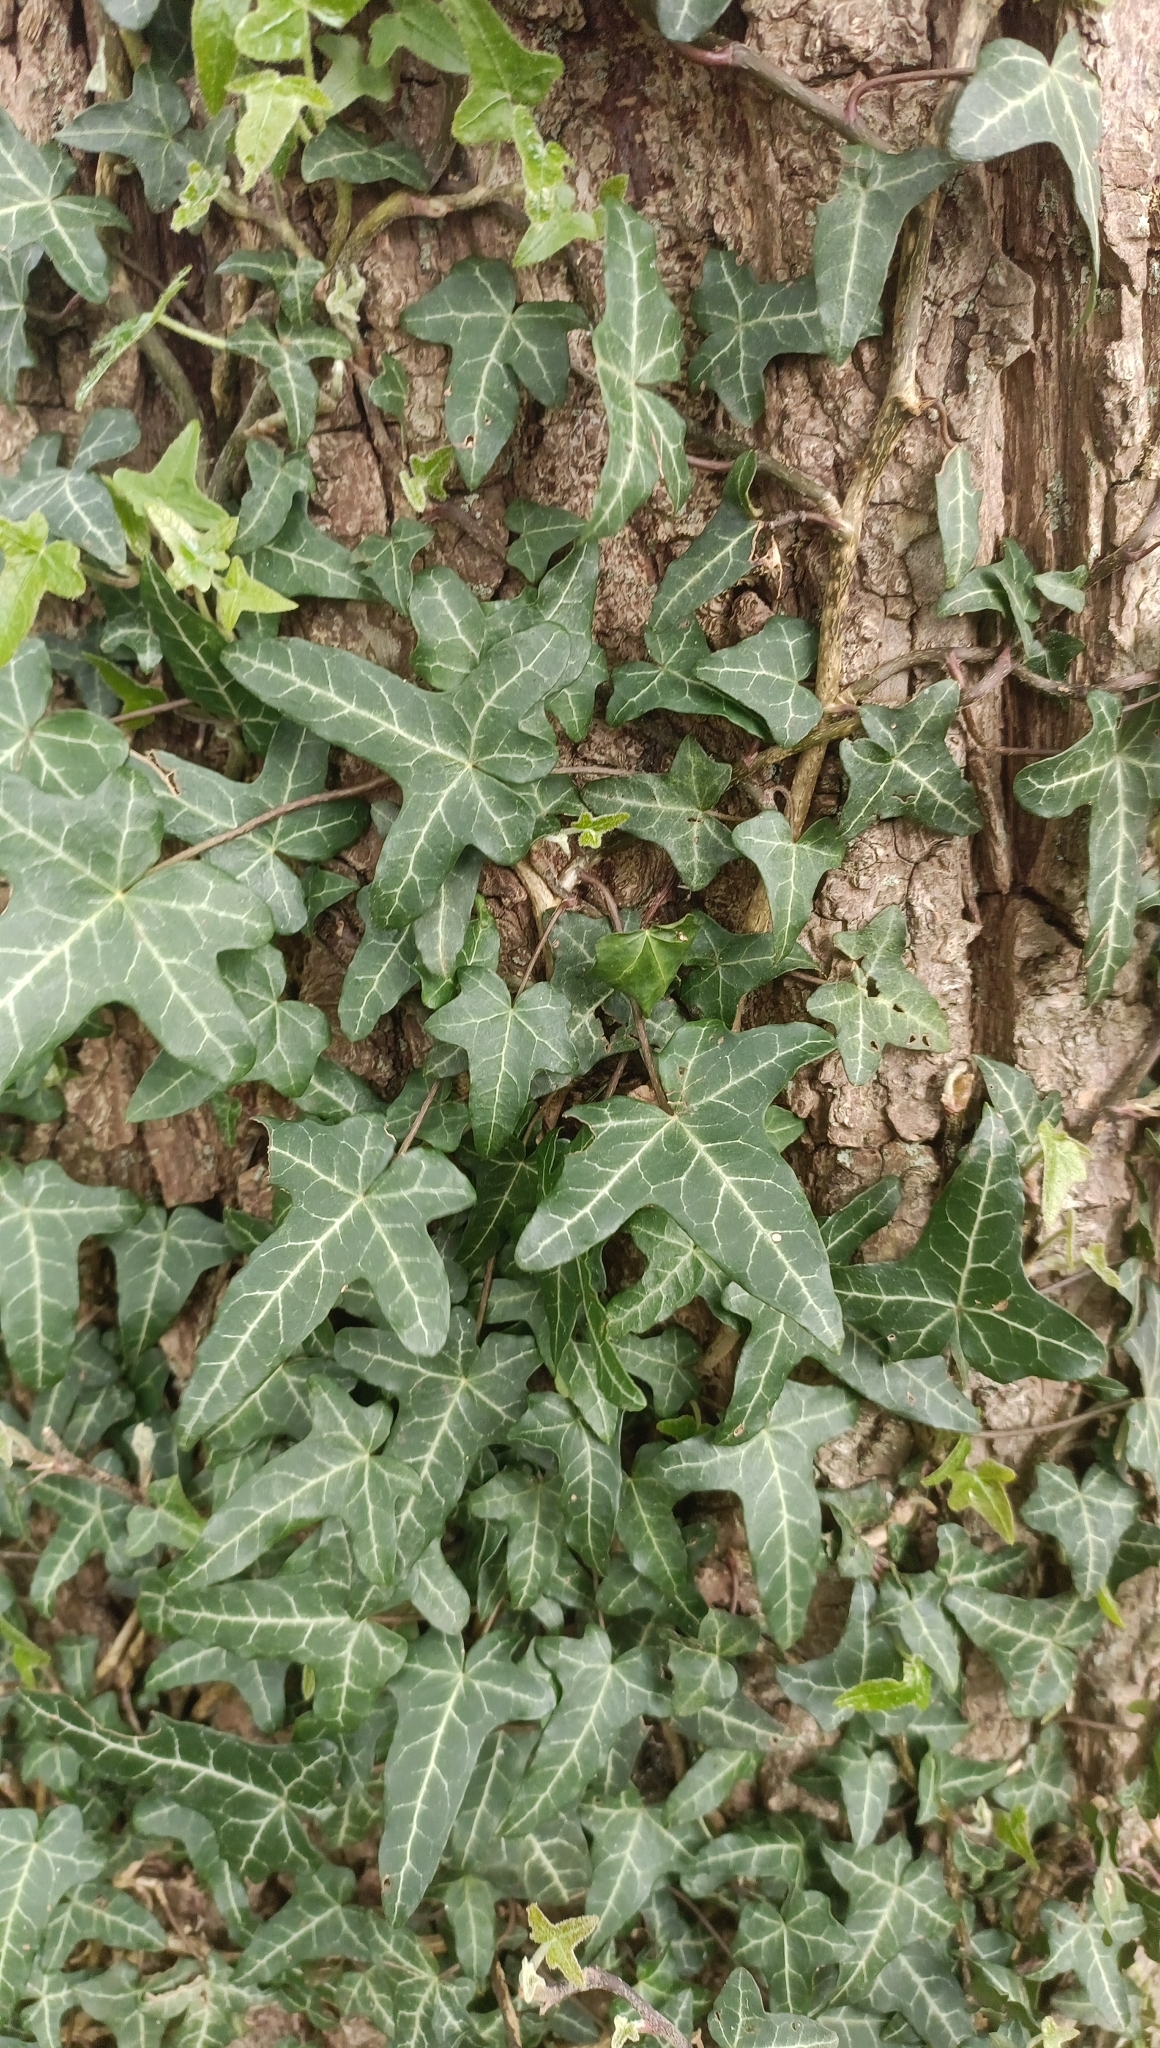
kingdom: Plantae
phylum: Tracheophyta
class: Magnoliopsida
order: Apiales
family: Araliaceae
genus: Hedera
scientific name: Hedera helix
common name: Ivy
